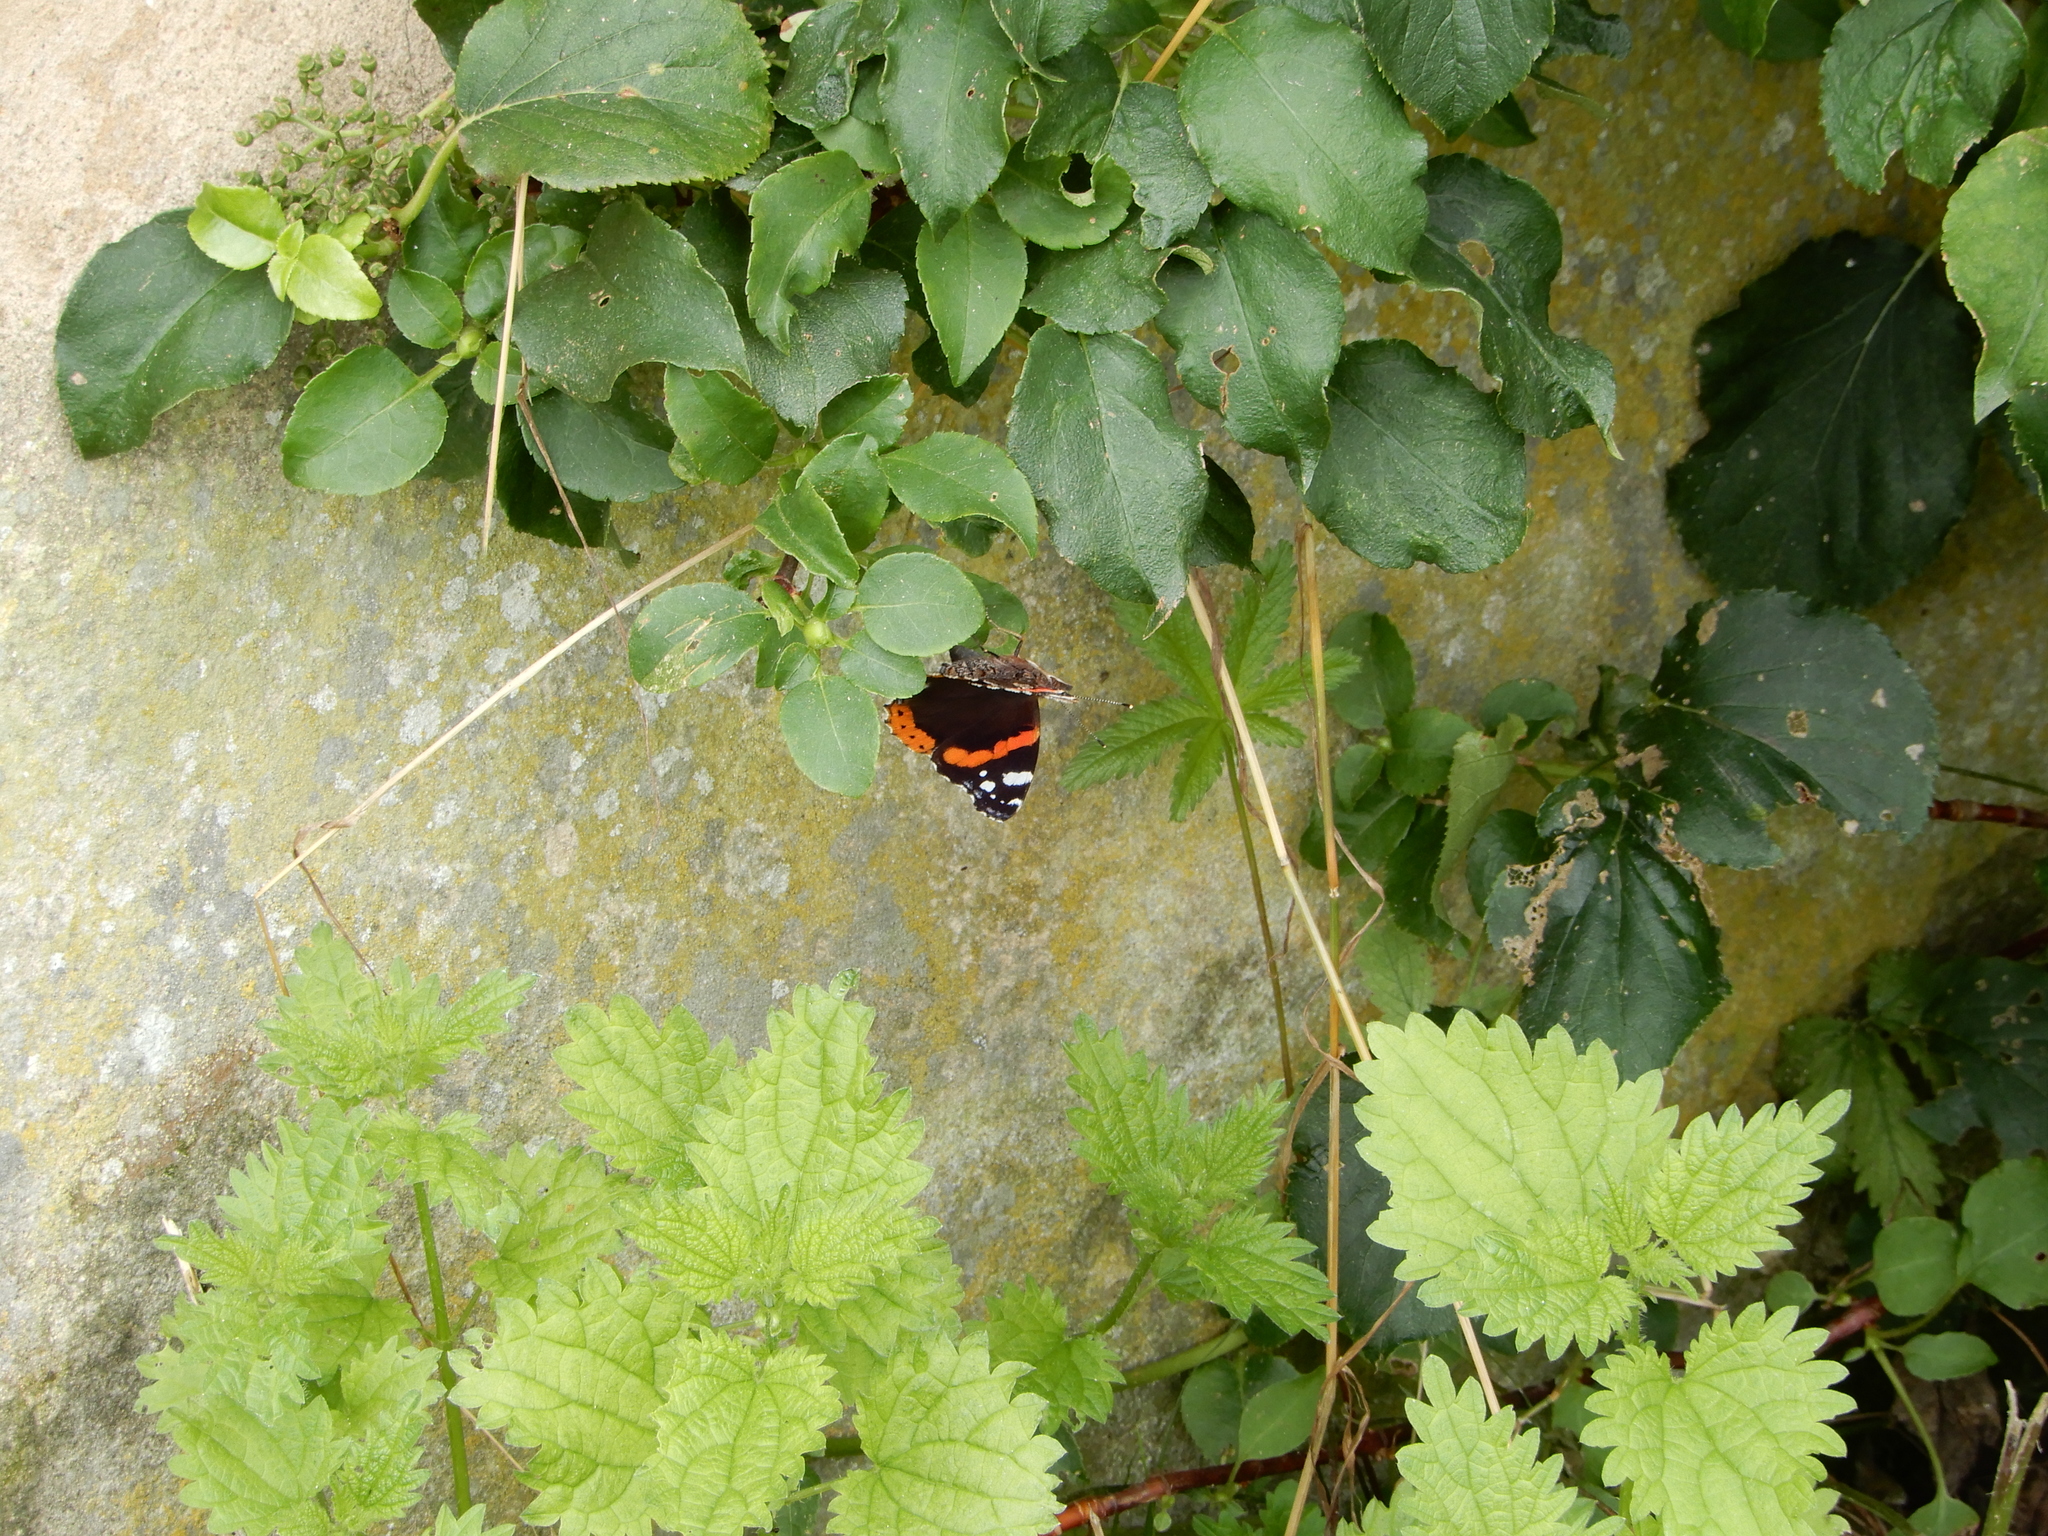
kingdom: Animalia
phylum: Arthropoda
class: Insecta
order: Lepidoptera
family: Nymphalidae
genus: Vanessa
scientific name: Vanessa atalanta
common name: Red admiral
